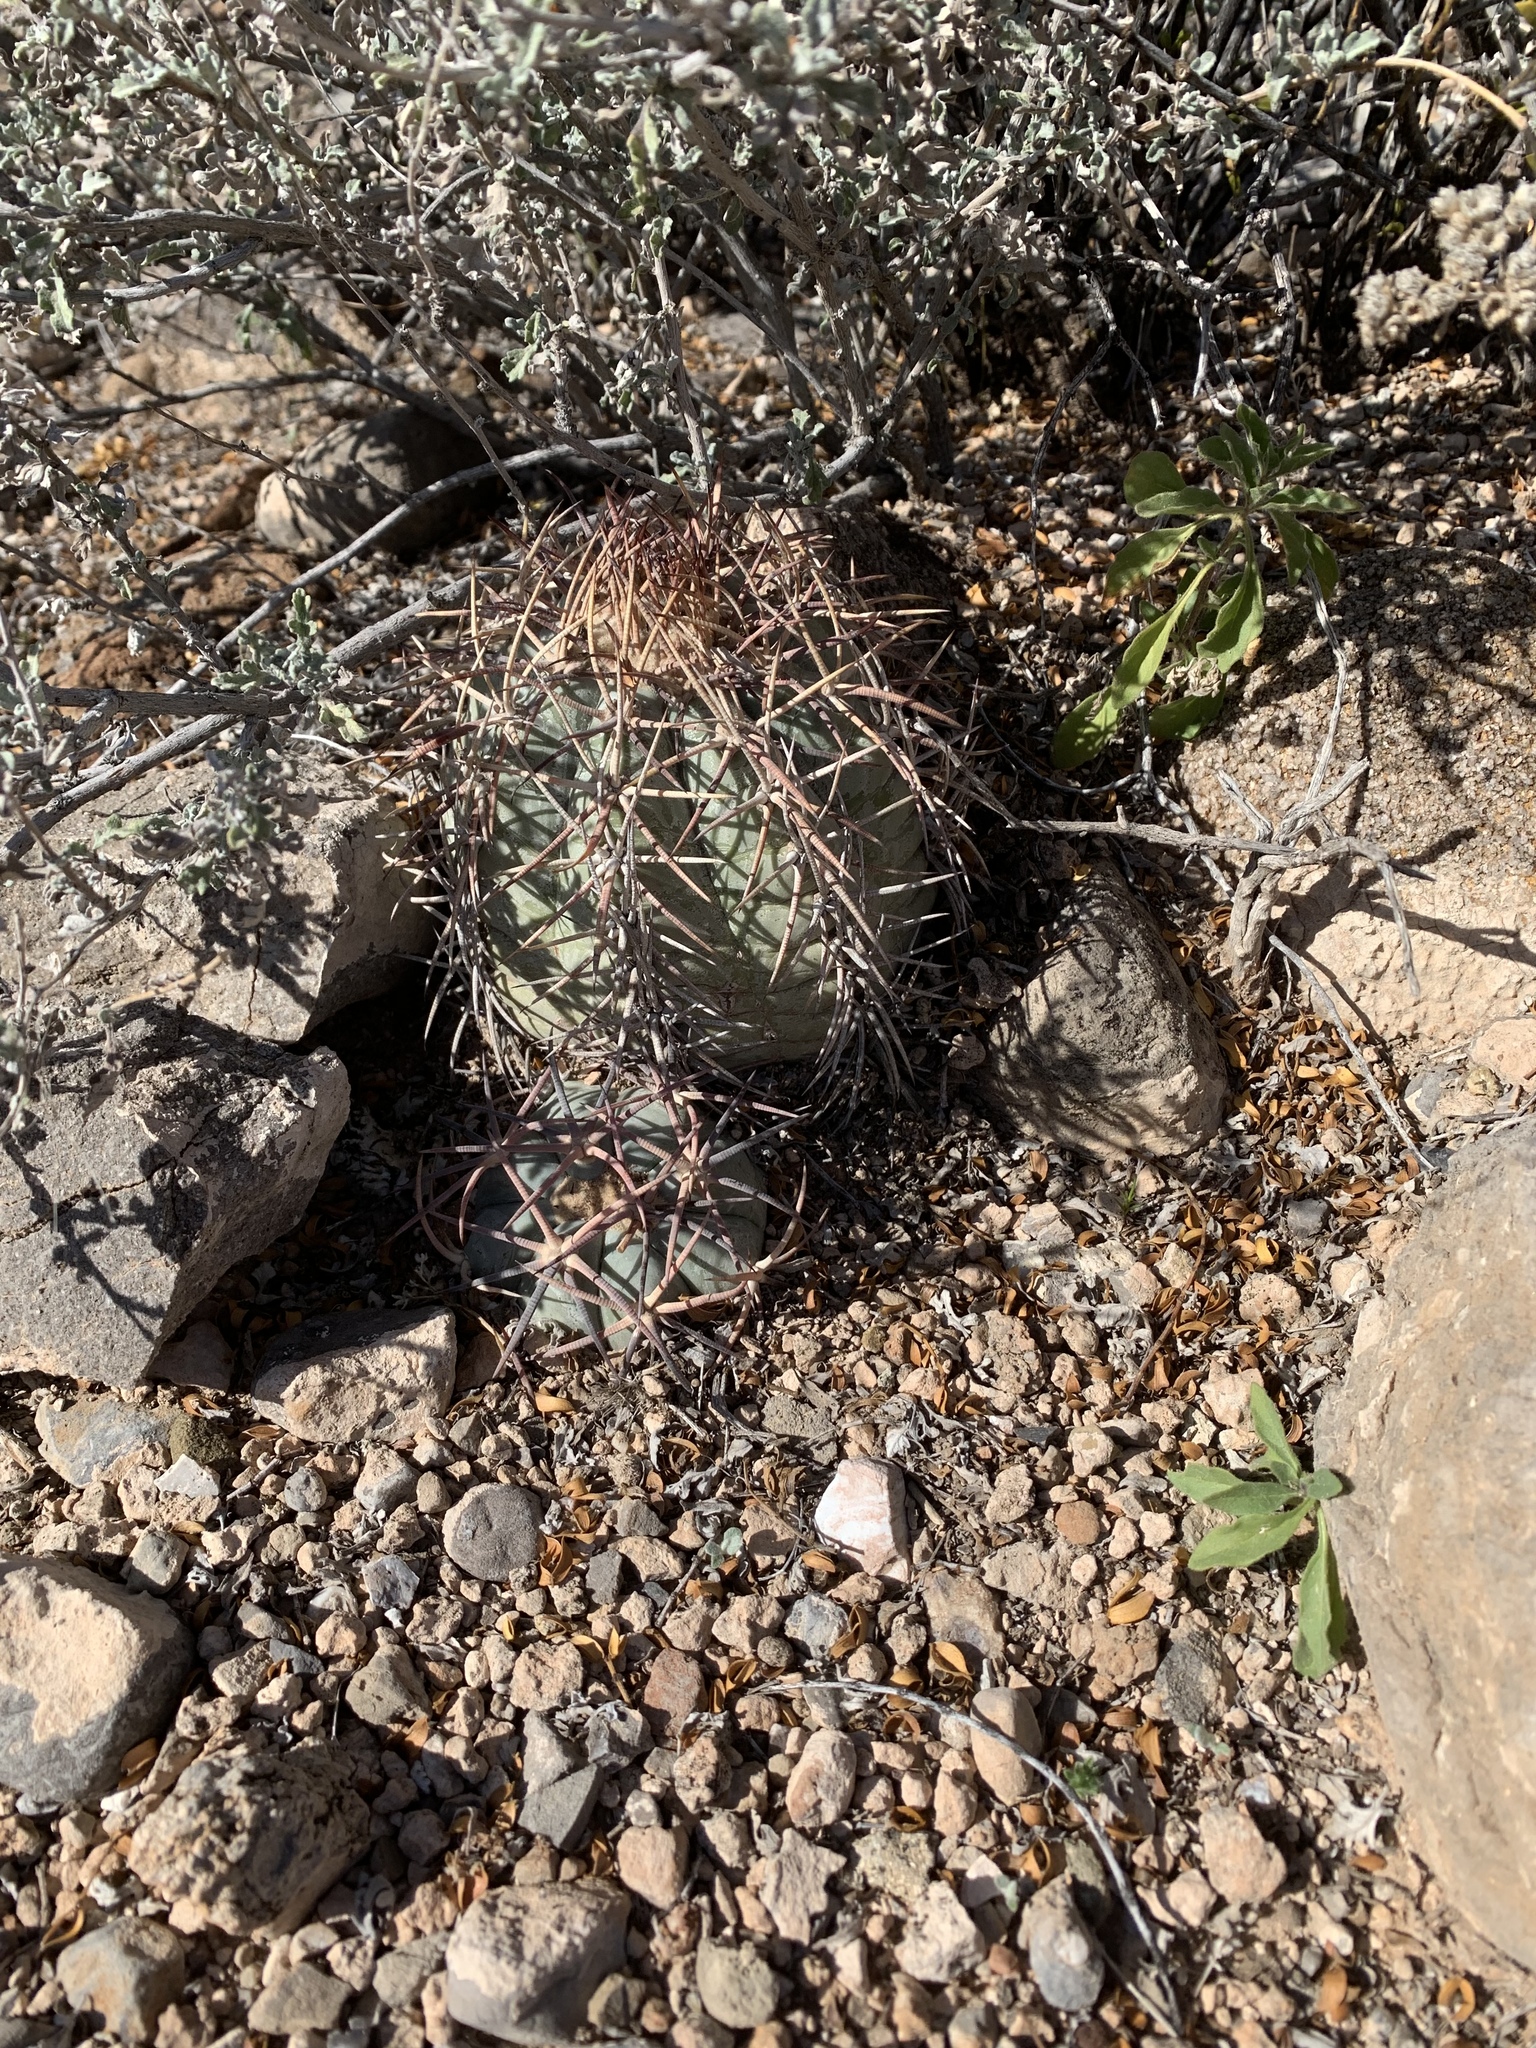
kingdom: Plantae
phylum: Tracheophyta
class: Magnoliopsida
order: Caryophyllales
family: Cactaceae
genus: Echinocactus
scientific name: Echinocactus horizonthalonius
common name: Devilshead
